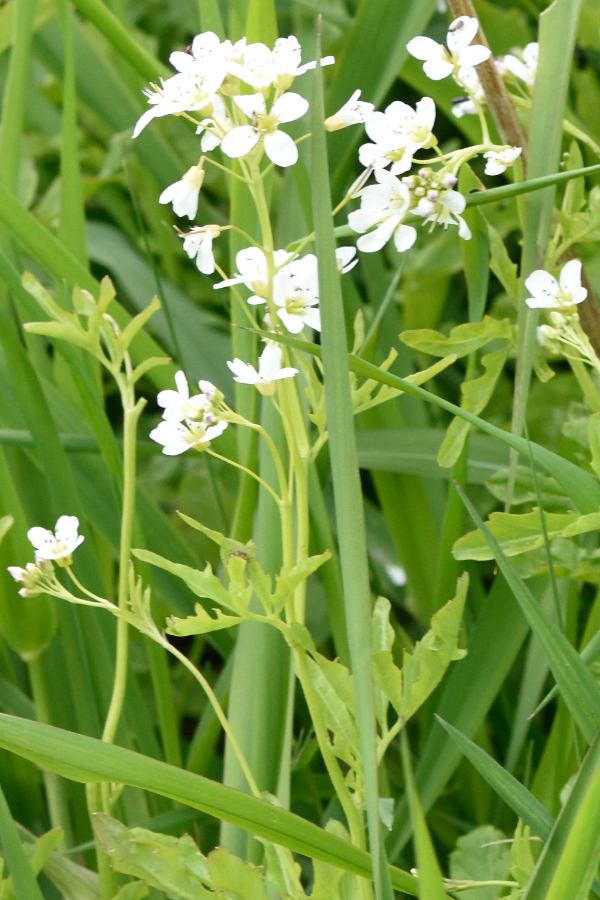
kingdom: Plantae
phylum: Tracheophyta
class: Magnoliopsida
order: Brassicales
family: Brassicaceae
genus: Cardamine
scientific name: Cardamine amara
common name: Large bitter-cress
